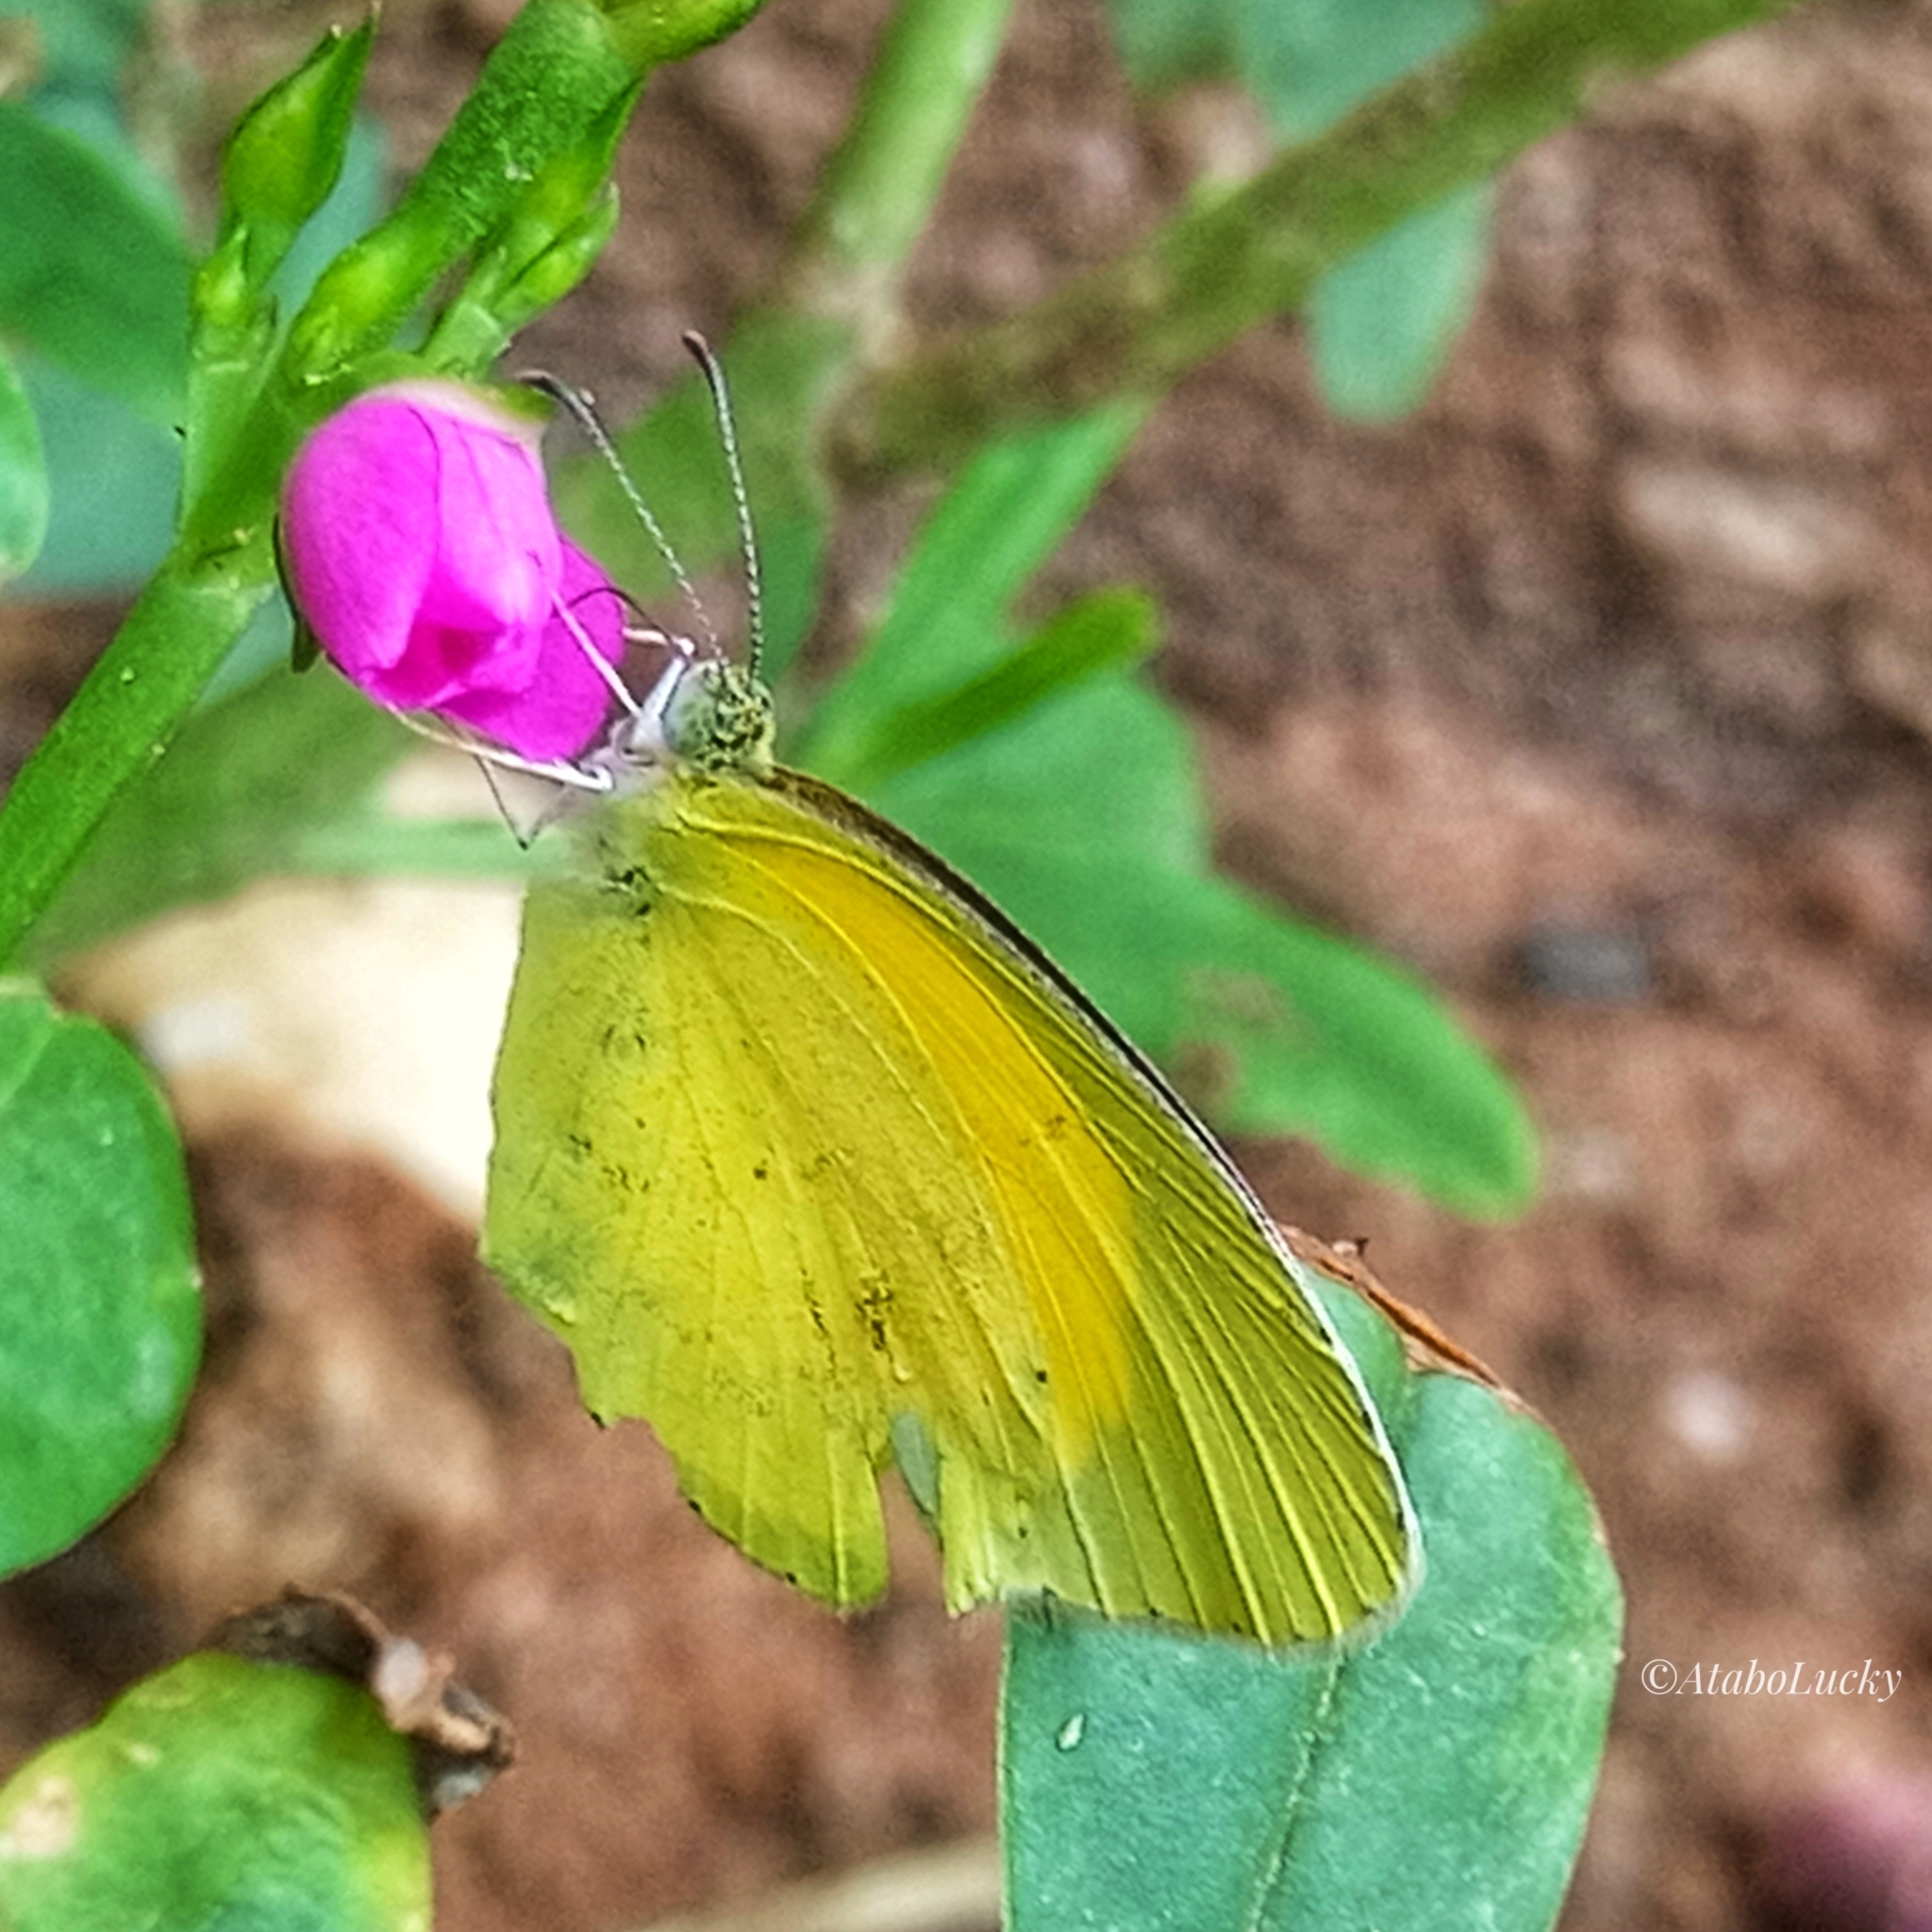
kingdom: Animalia
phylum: Arthropoda
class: Insecta
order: Lepidoptera
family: Pieridae
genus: Eurema
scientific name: Eurema brigitta
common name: Small grass yellow
